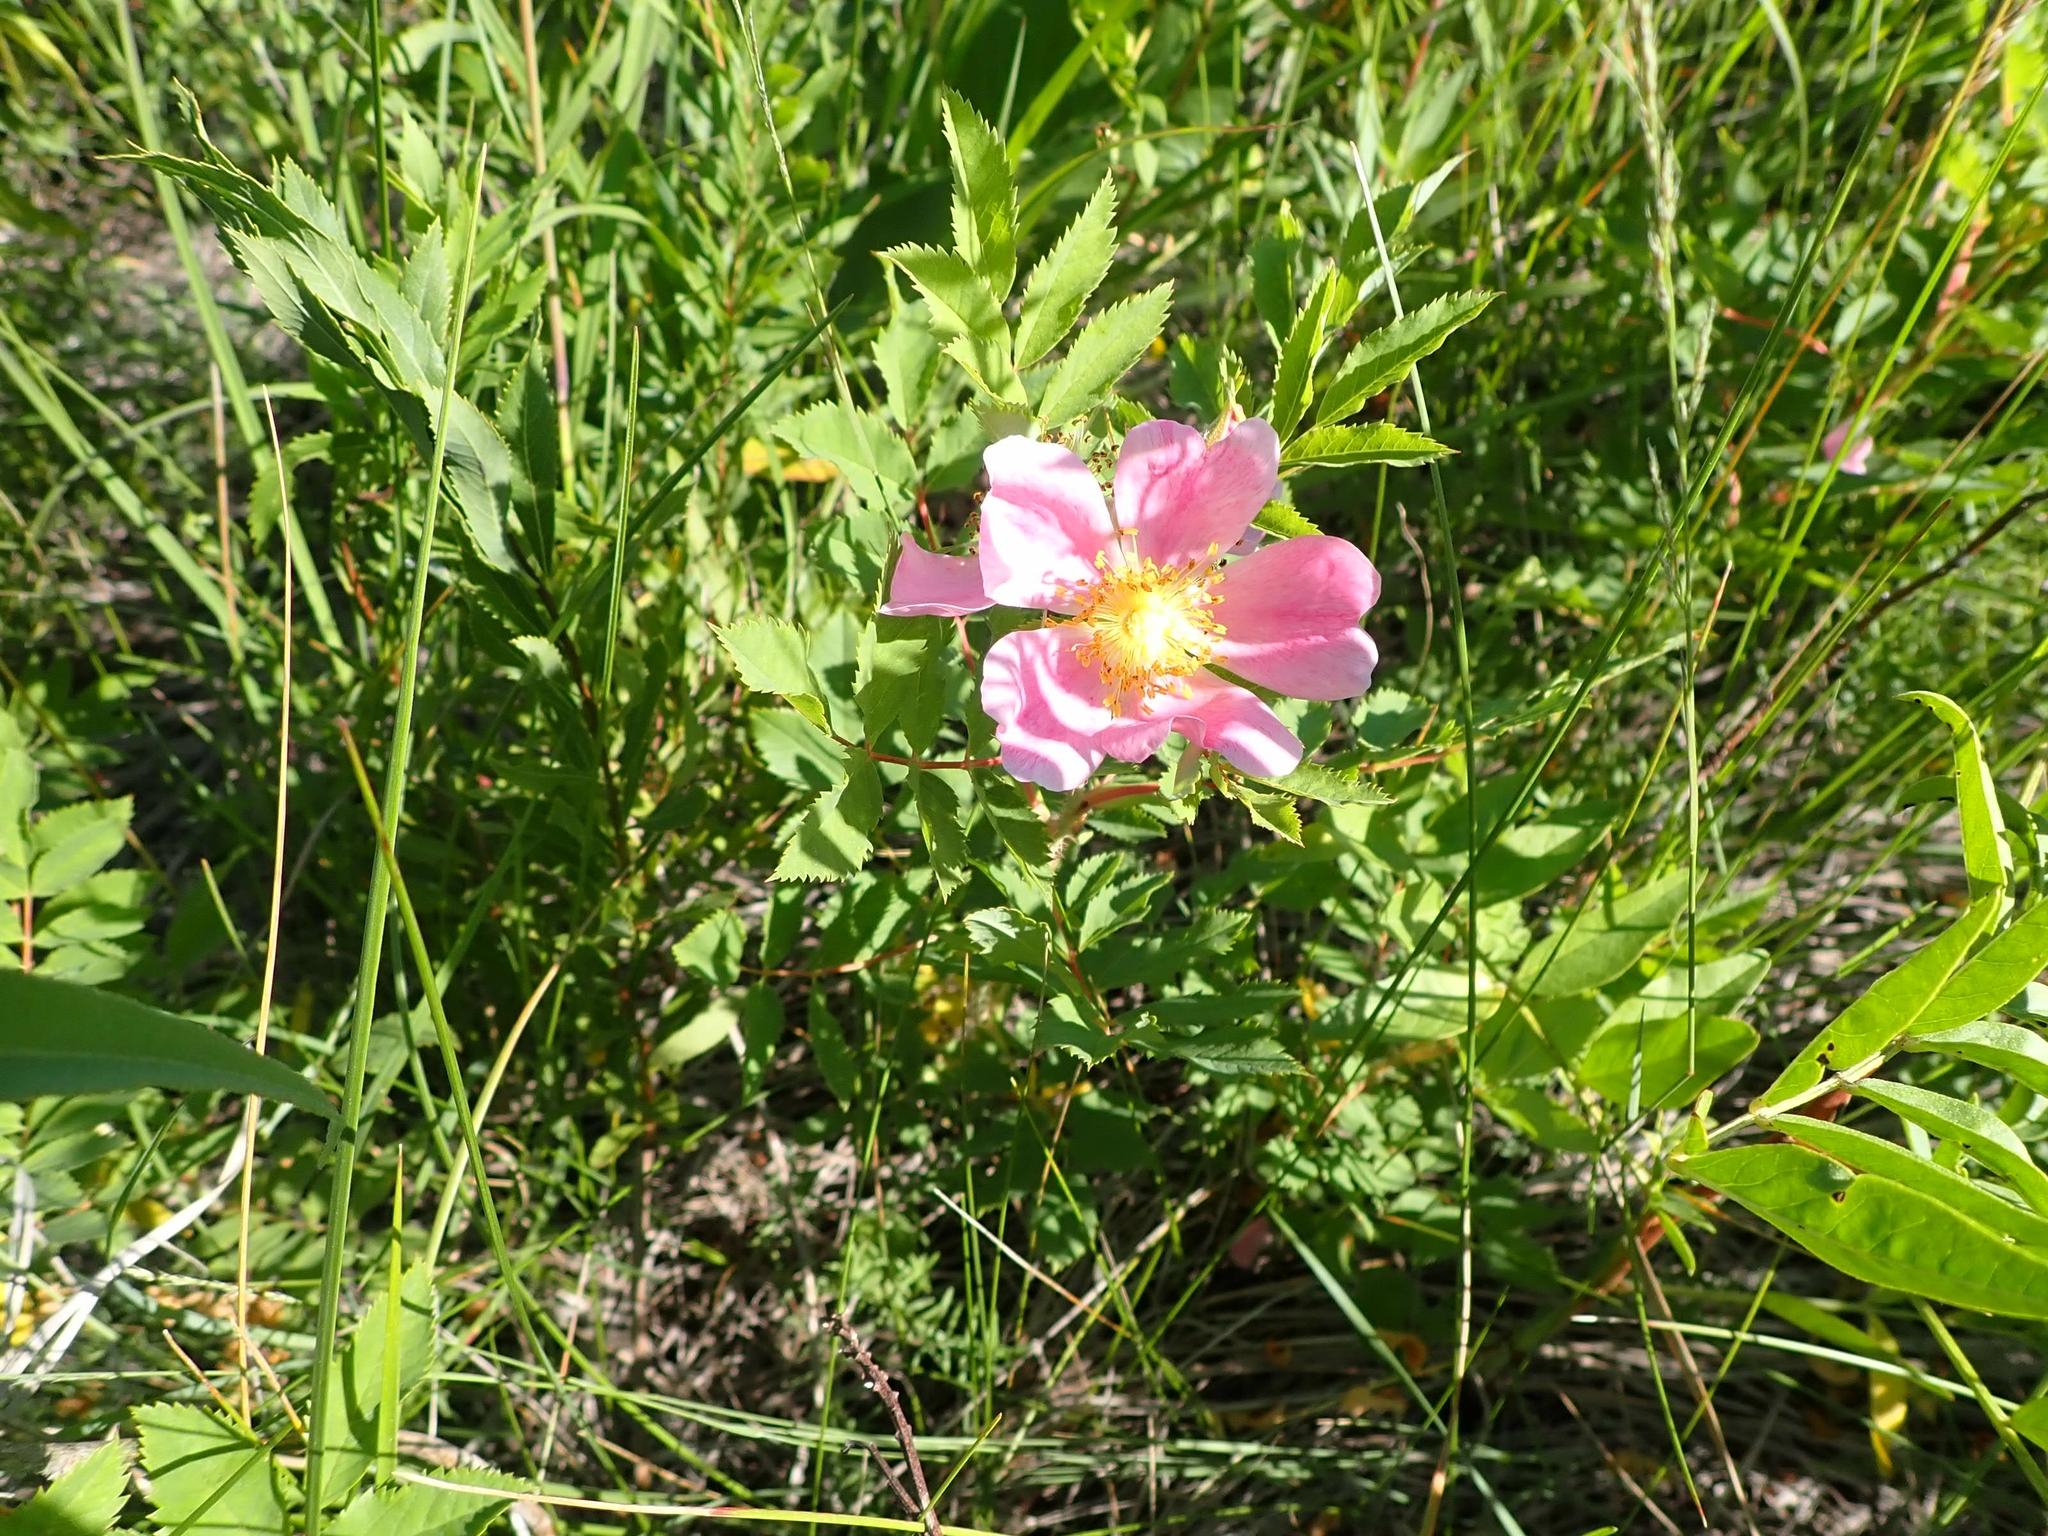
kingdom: Plantae
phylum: Tracheophyta
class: Magnoliopsida
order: Rosales
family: Rosaceae
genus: Rosa
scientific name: Rosa arkansana
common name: Prairie rose
